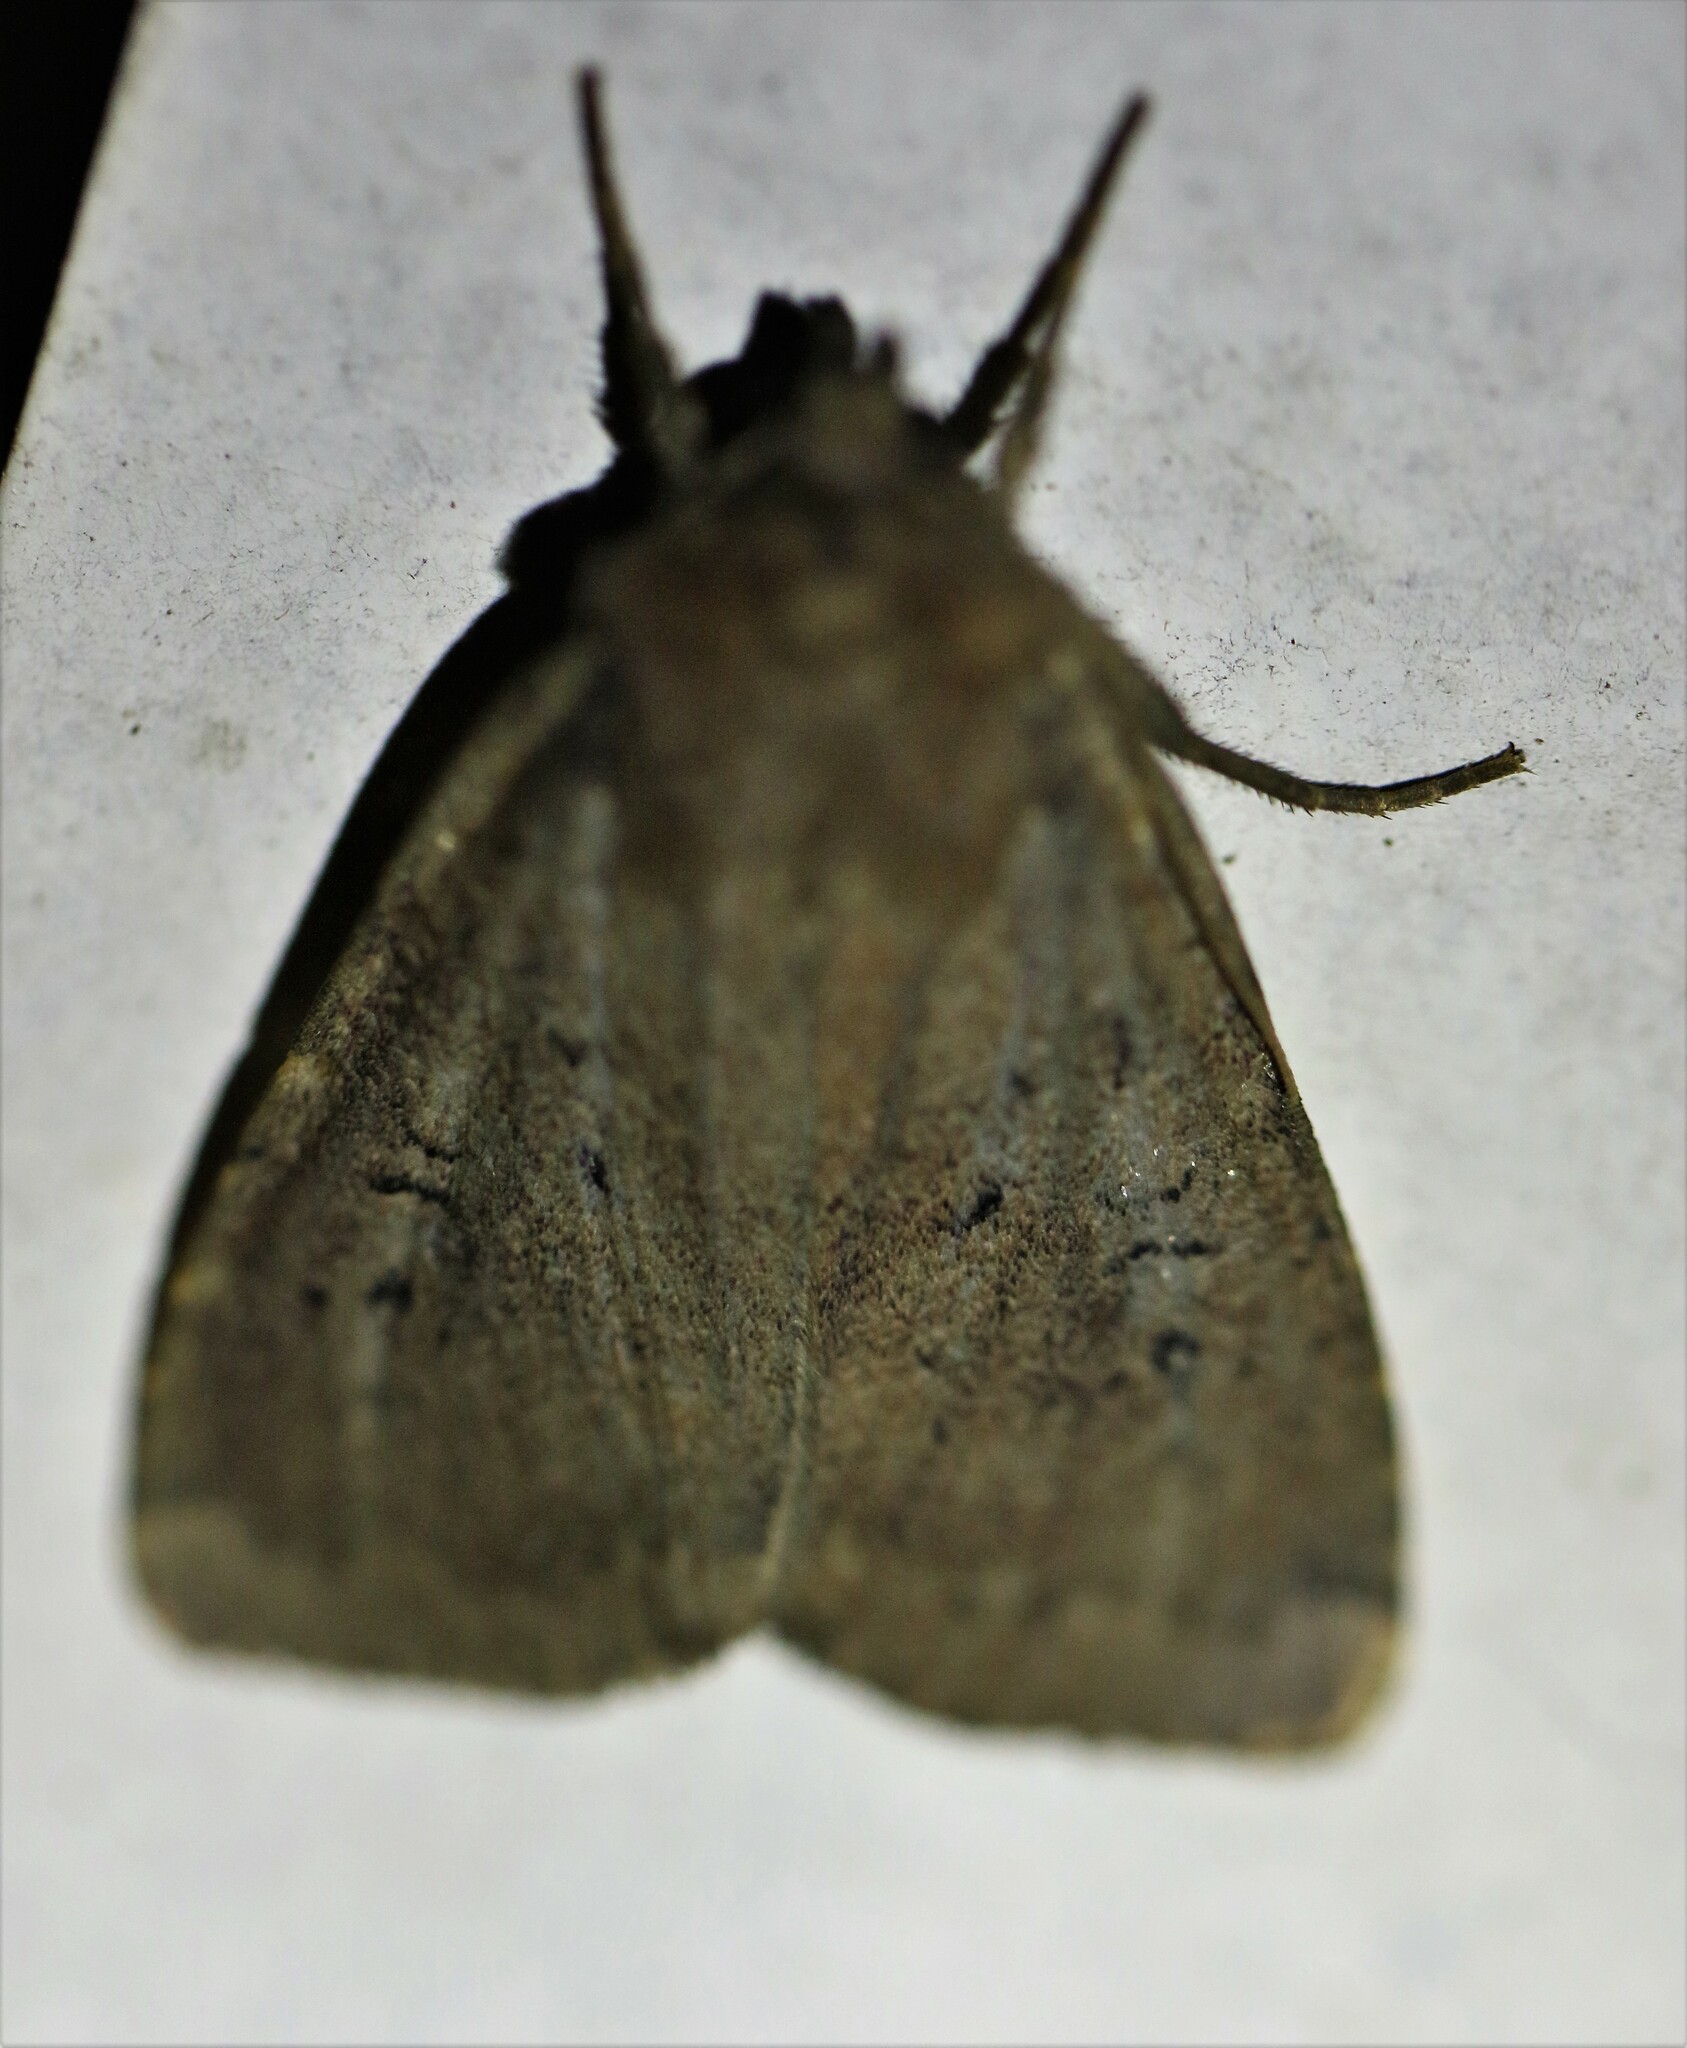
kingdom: Animalia
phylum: Arthropoda
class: Insecta
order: Lepidoptera
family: Noctuidae
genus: Graphiphora
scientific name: Graphiphora augur
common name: Double dart
